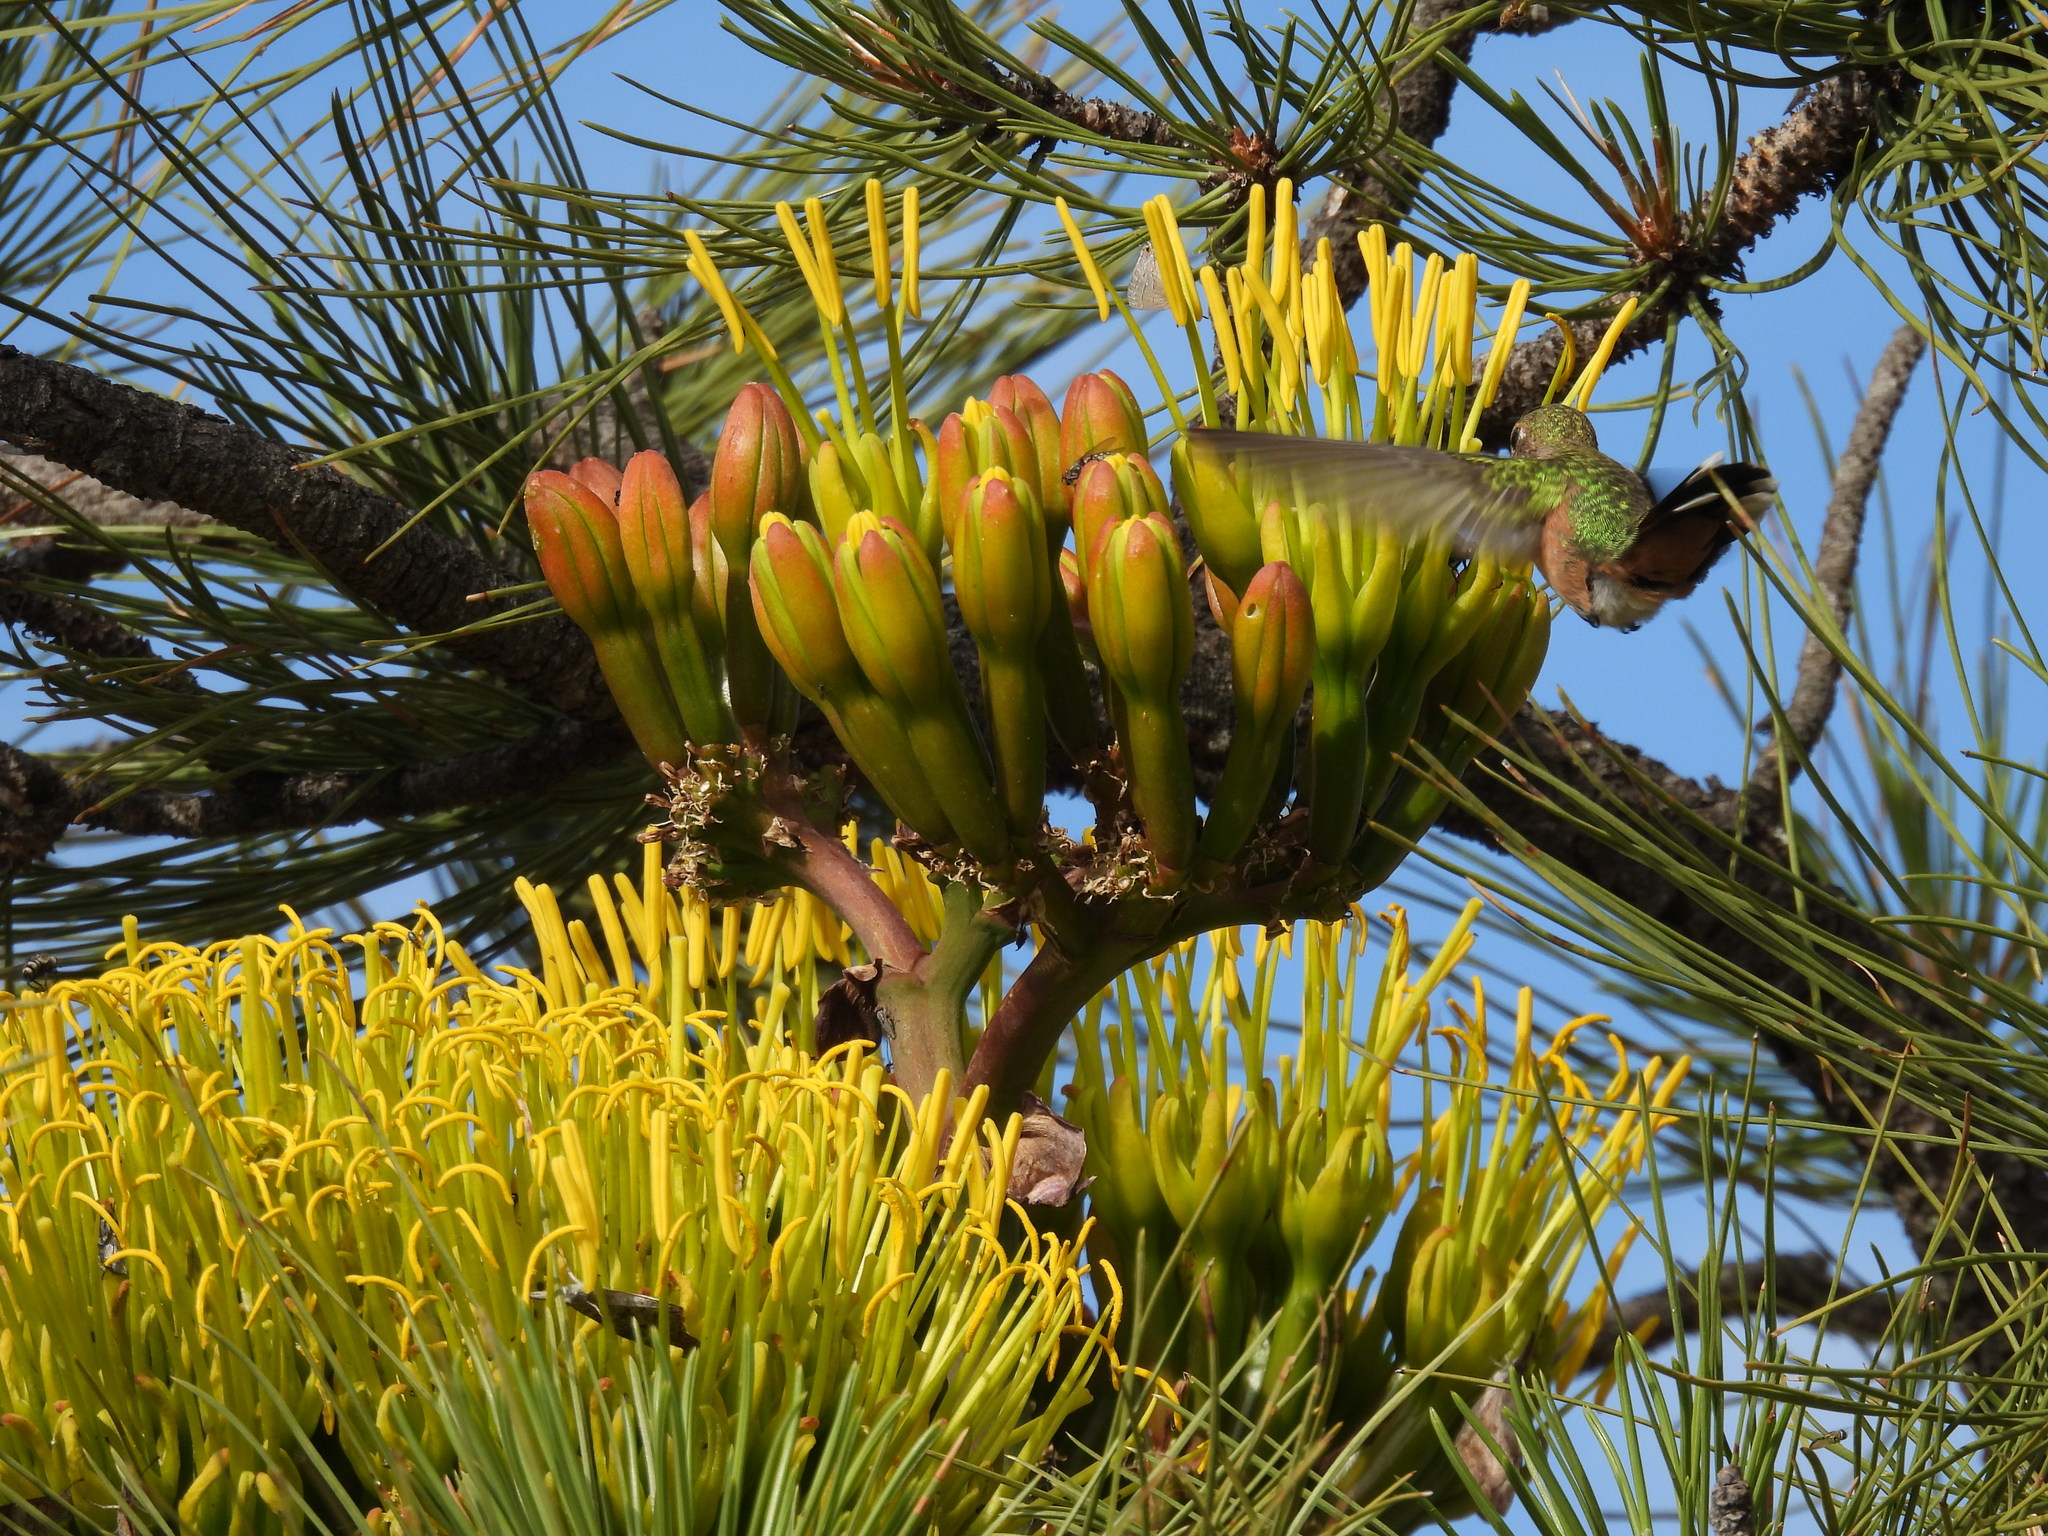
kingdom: Animalia
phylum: Chordata
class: Aves
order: Apodiformes
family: Trochilidae
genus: Selasphorus
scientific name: Selasphorus platycercus
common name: Broad-tailed hummingbird
